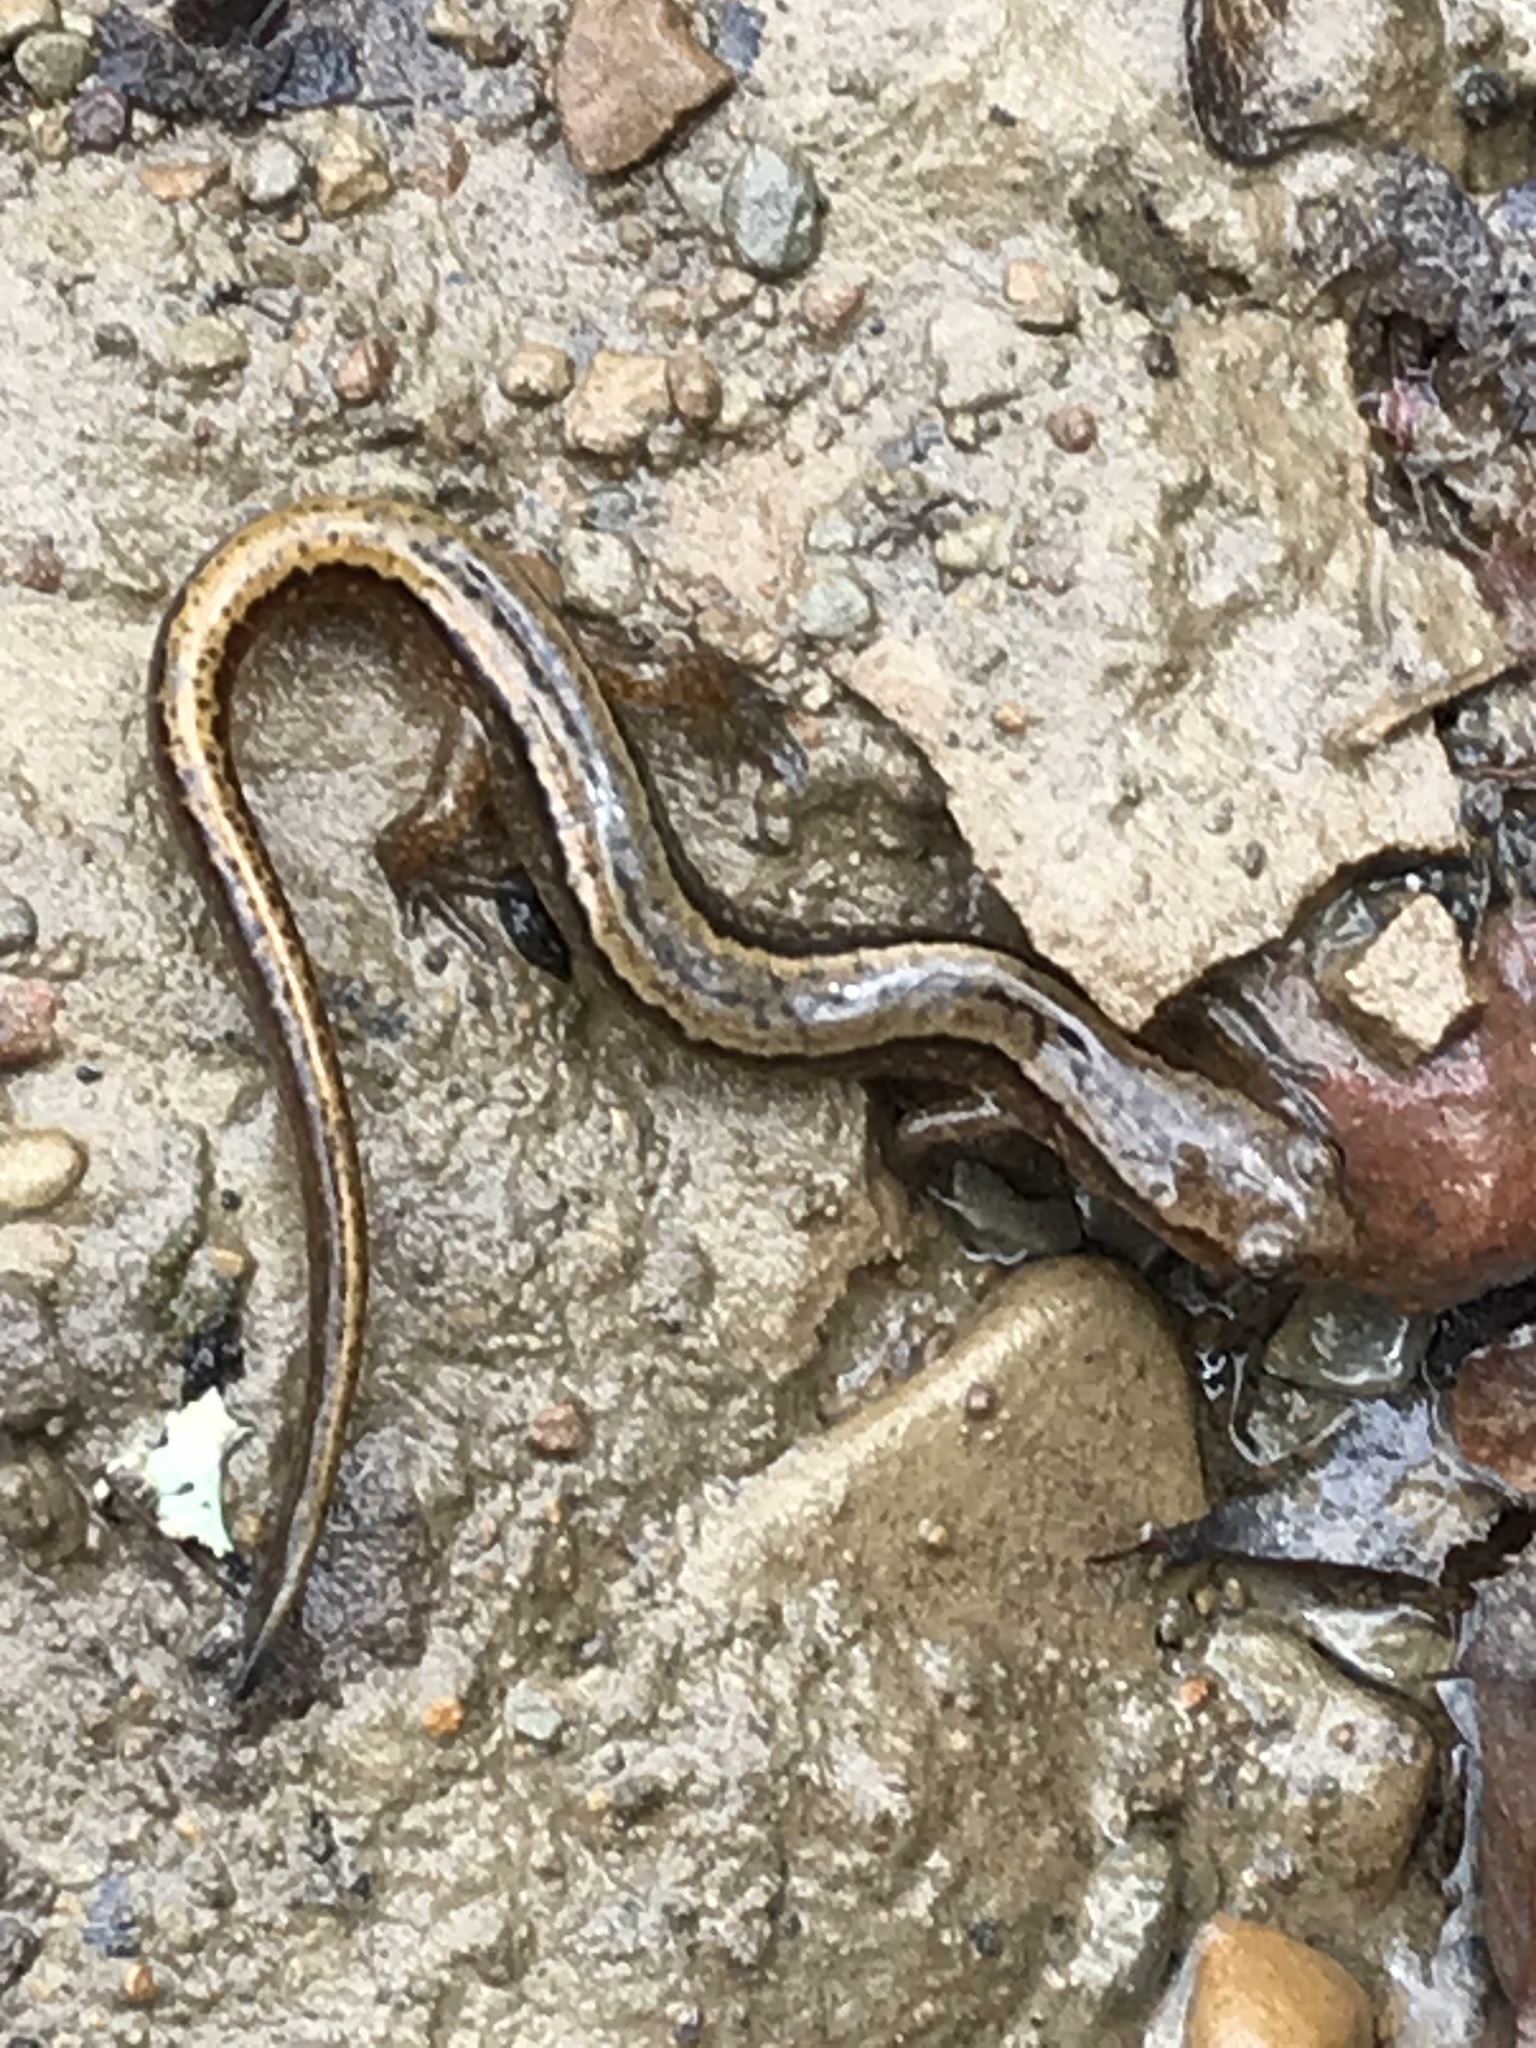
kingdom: Animalia
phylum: Chordata
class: Amphibia
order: Caudata
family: Plethodontidae
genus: Eurycea
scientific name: Eurycea cirrigera
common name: Southern two-lined salamander
